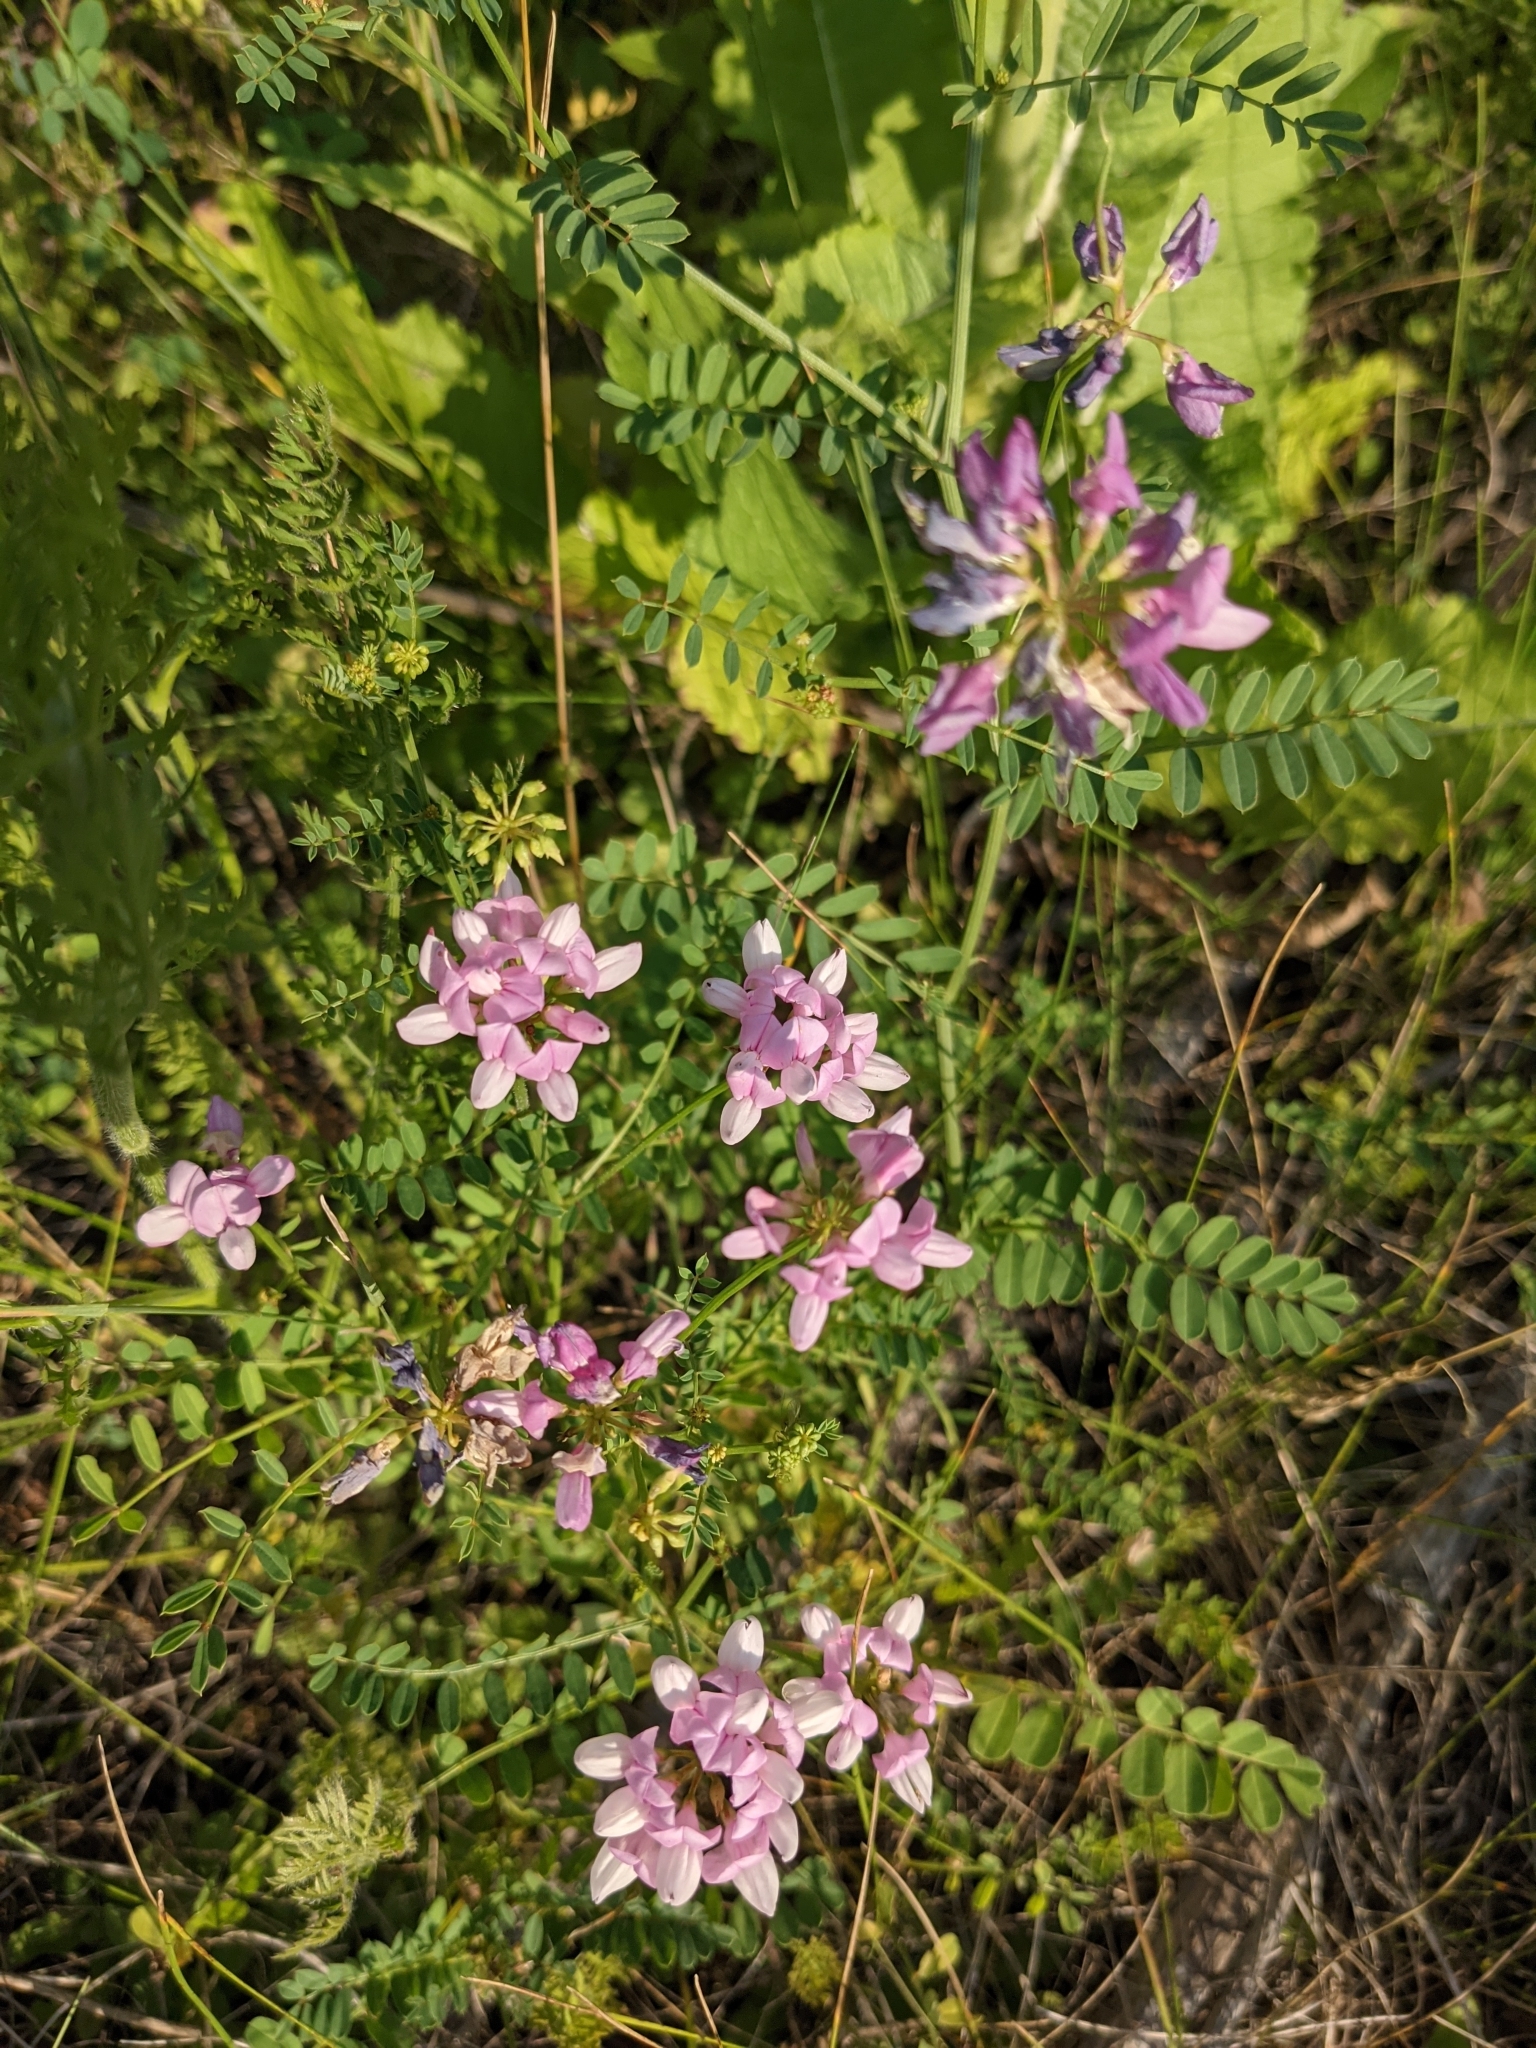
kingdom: Plantae
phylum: Tracheophyta
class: Magnoliopsida
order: Fabales
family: Fabaceae
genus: Coronilla
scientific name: Coronilla varia
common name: Crownvetch
